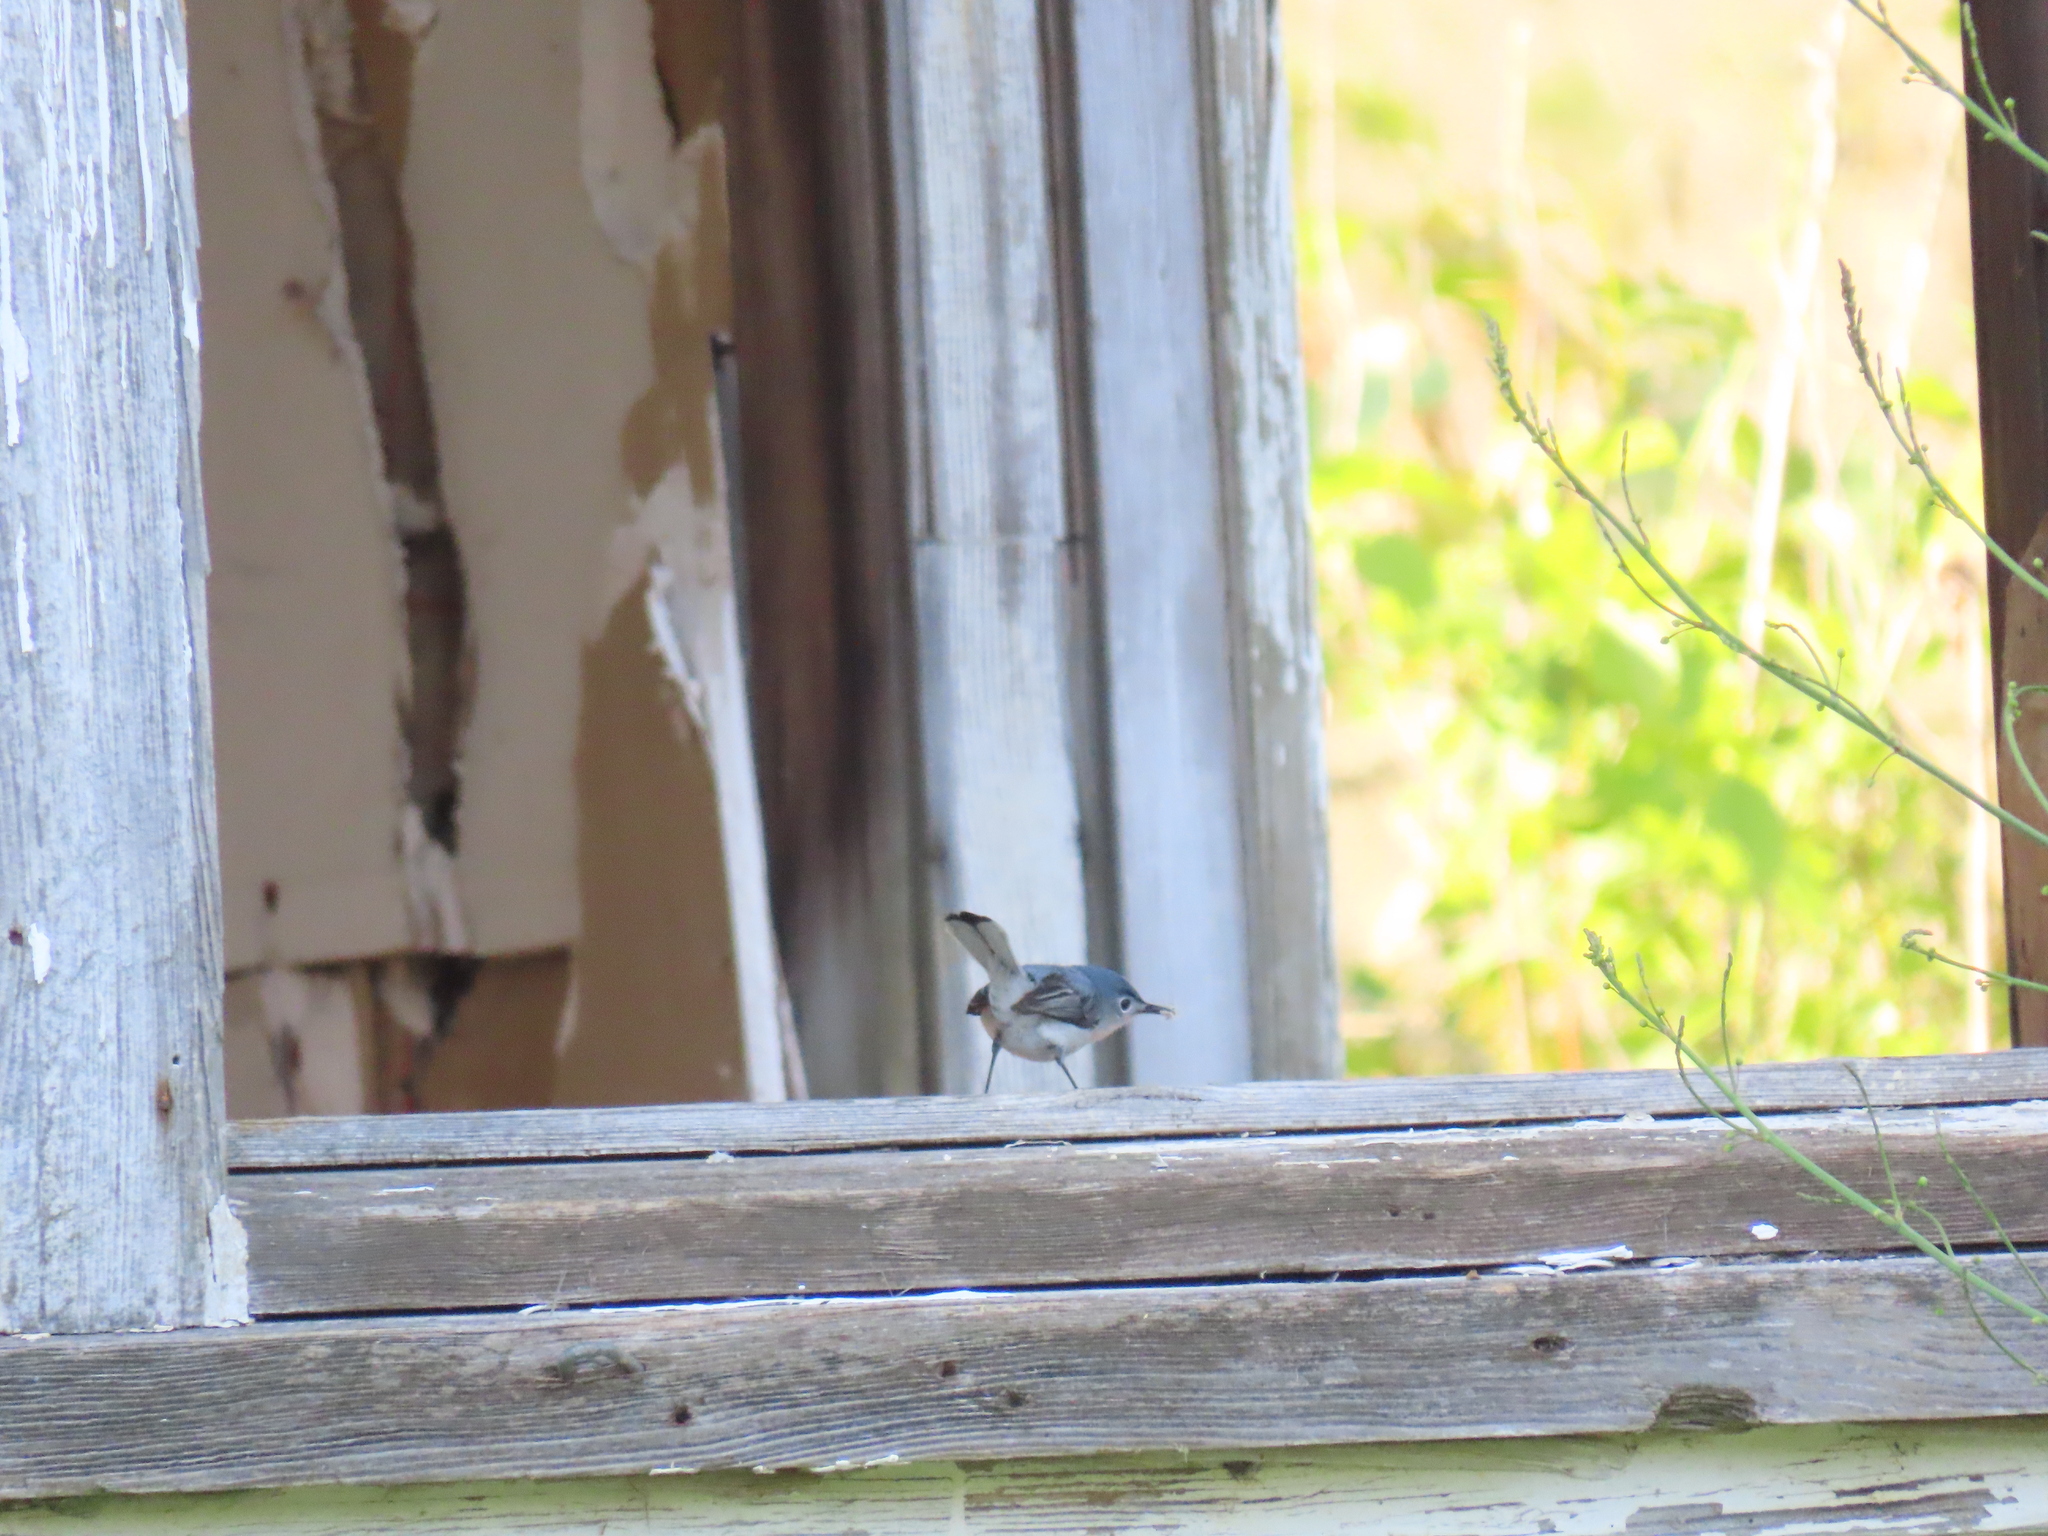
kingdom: Animalia
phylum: Chordata
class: Aves
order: Passeriformes
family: Polioptilidae
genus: Polioptila
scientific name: Polioptila caerulea
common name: Blue-gray gnatcatcher
